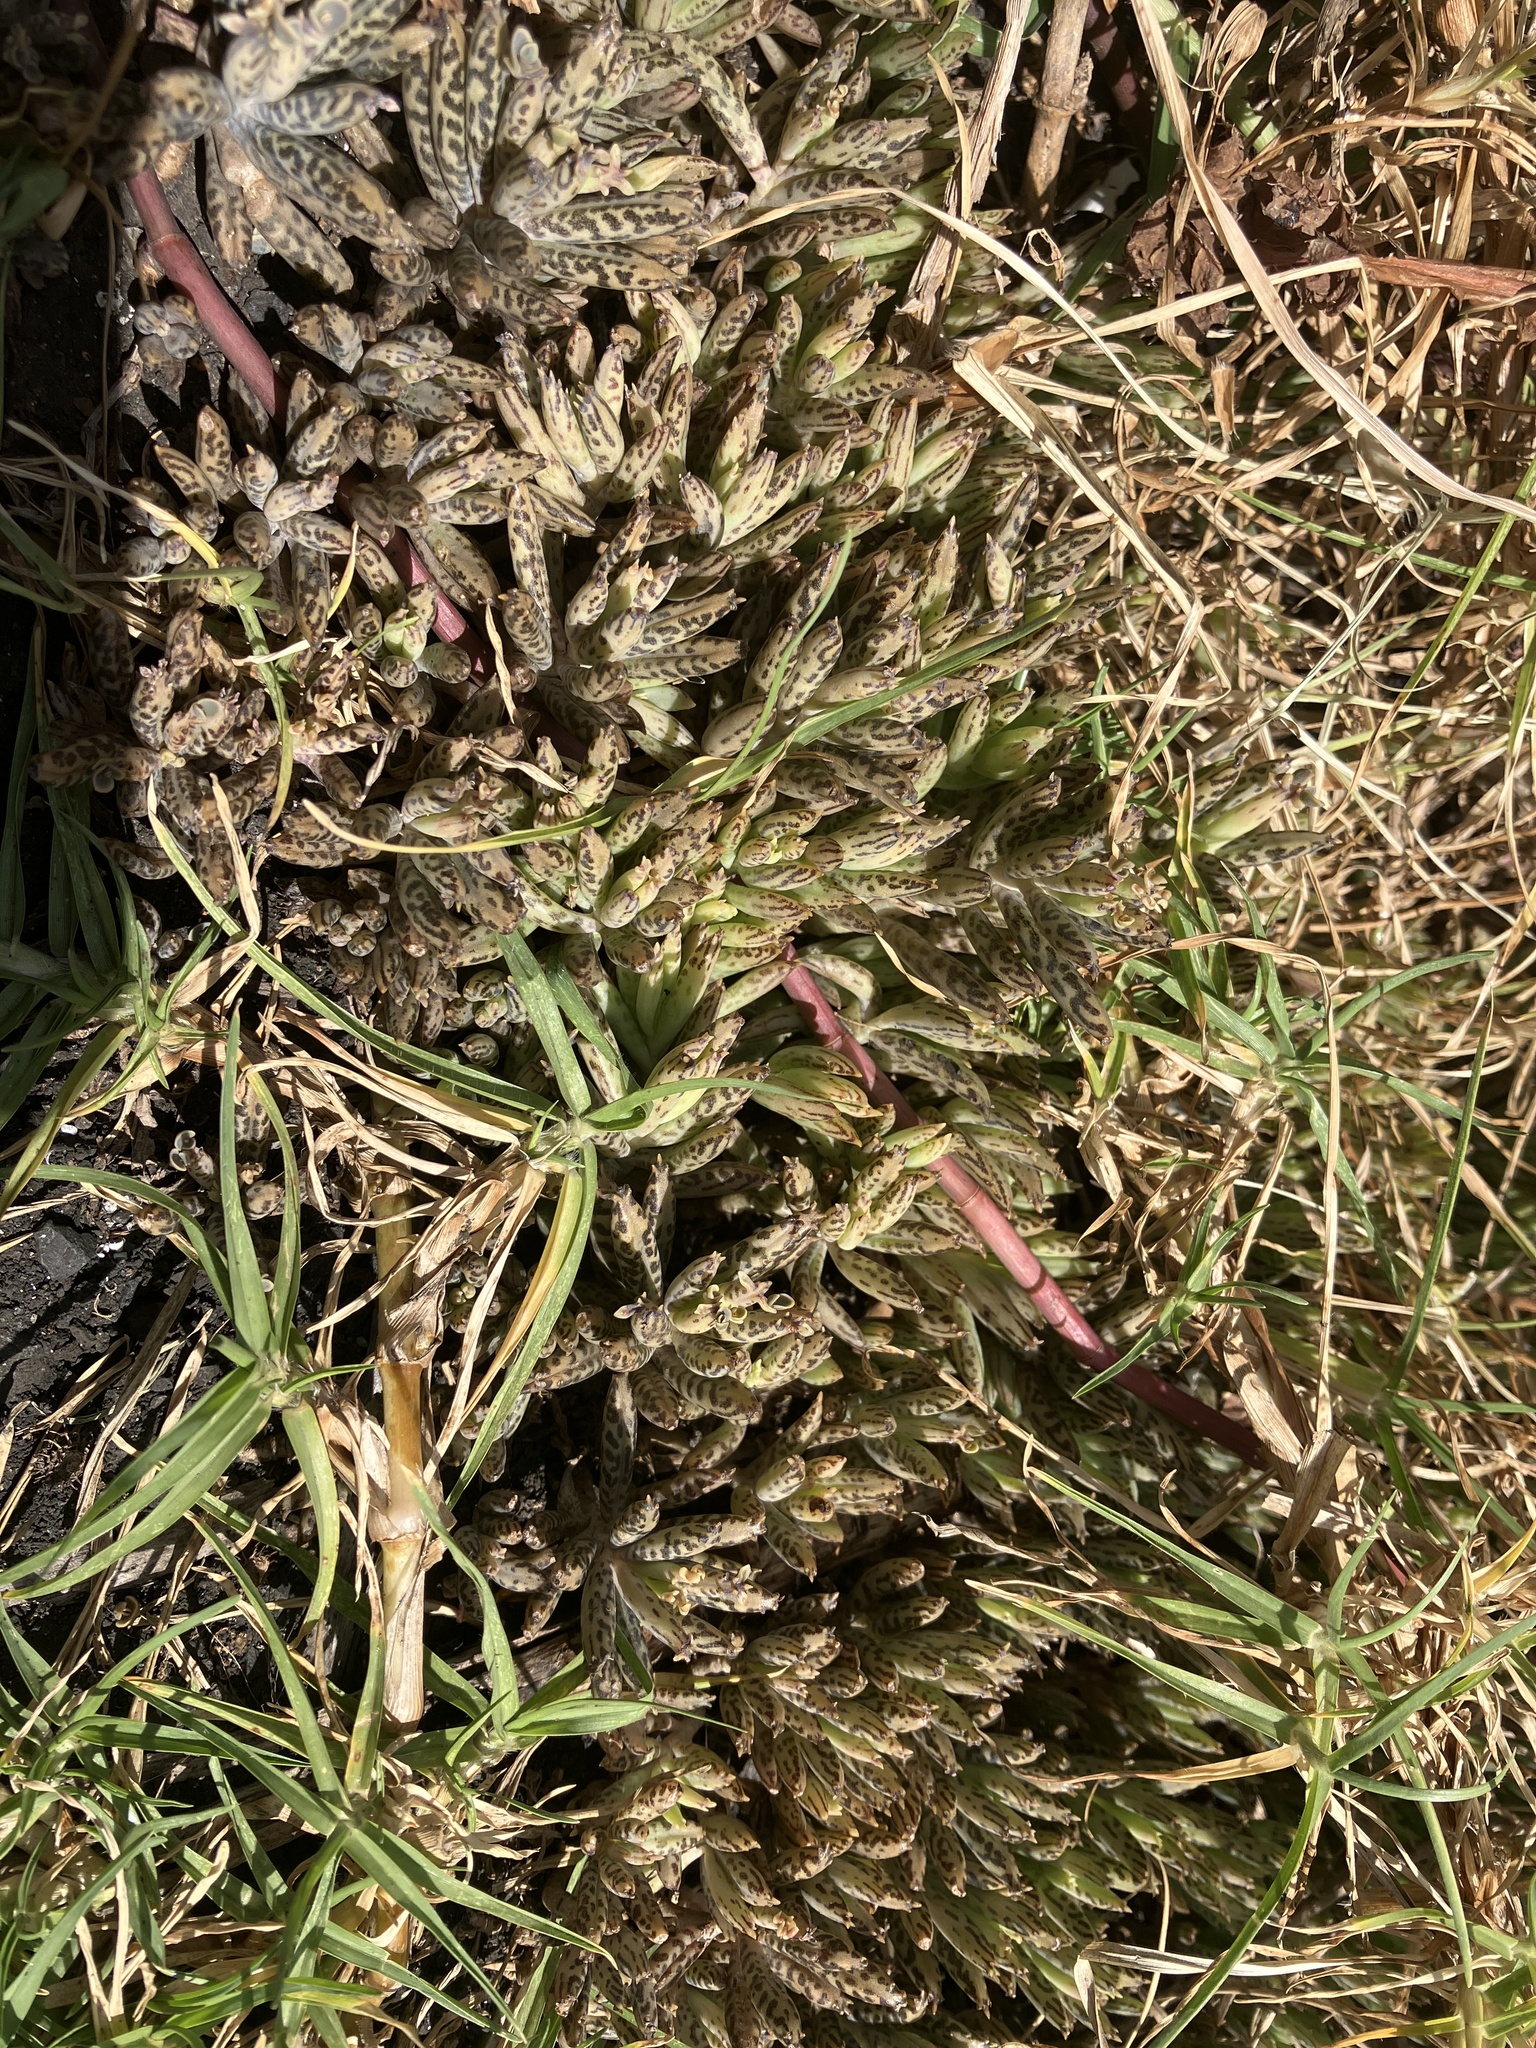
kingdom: Plantae
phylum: Tracheophyta
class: Magnoliopsida
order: Saxifragales
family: Crassulaceae
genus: Kalanchoe
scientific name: Kalanchoe delagoensis
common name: Chandelier plant
